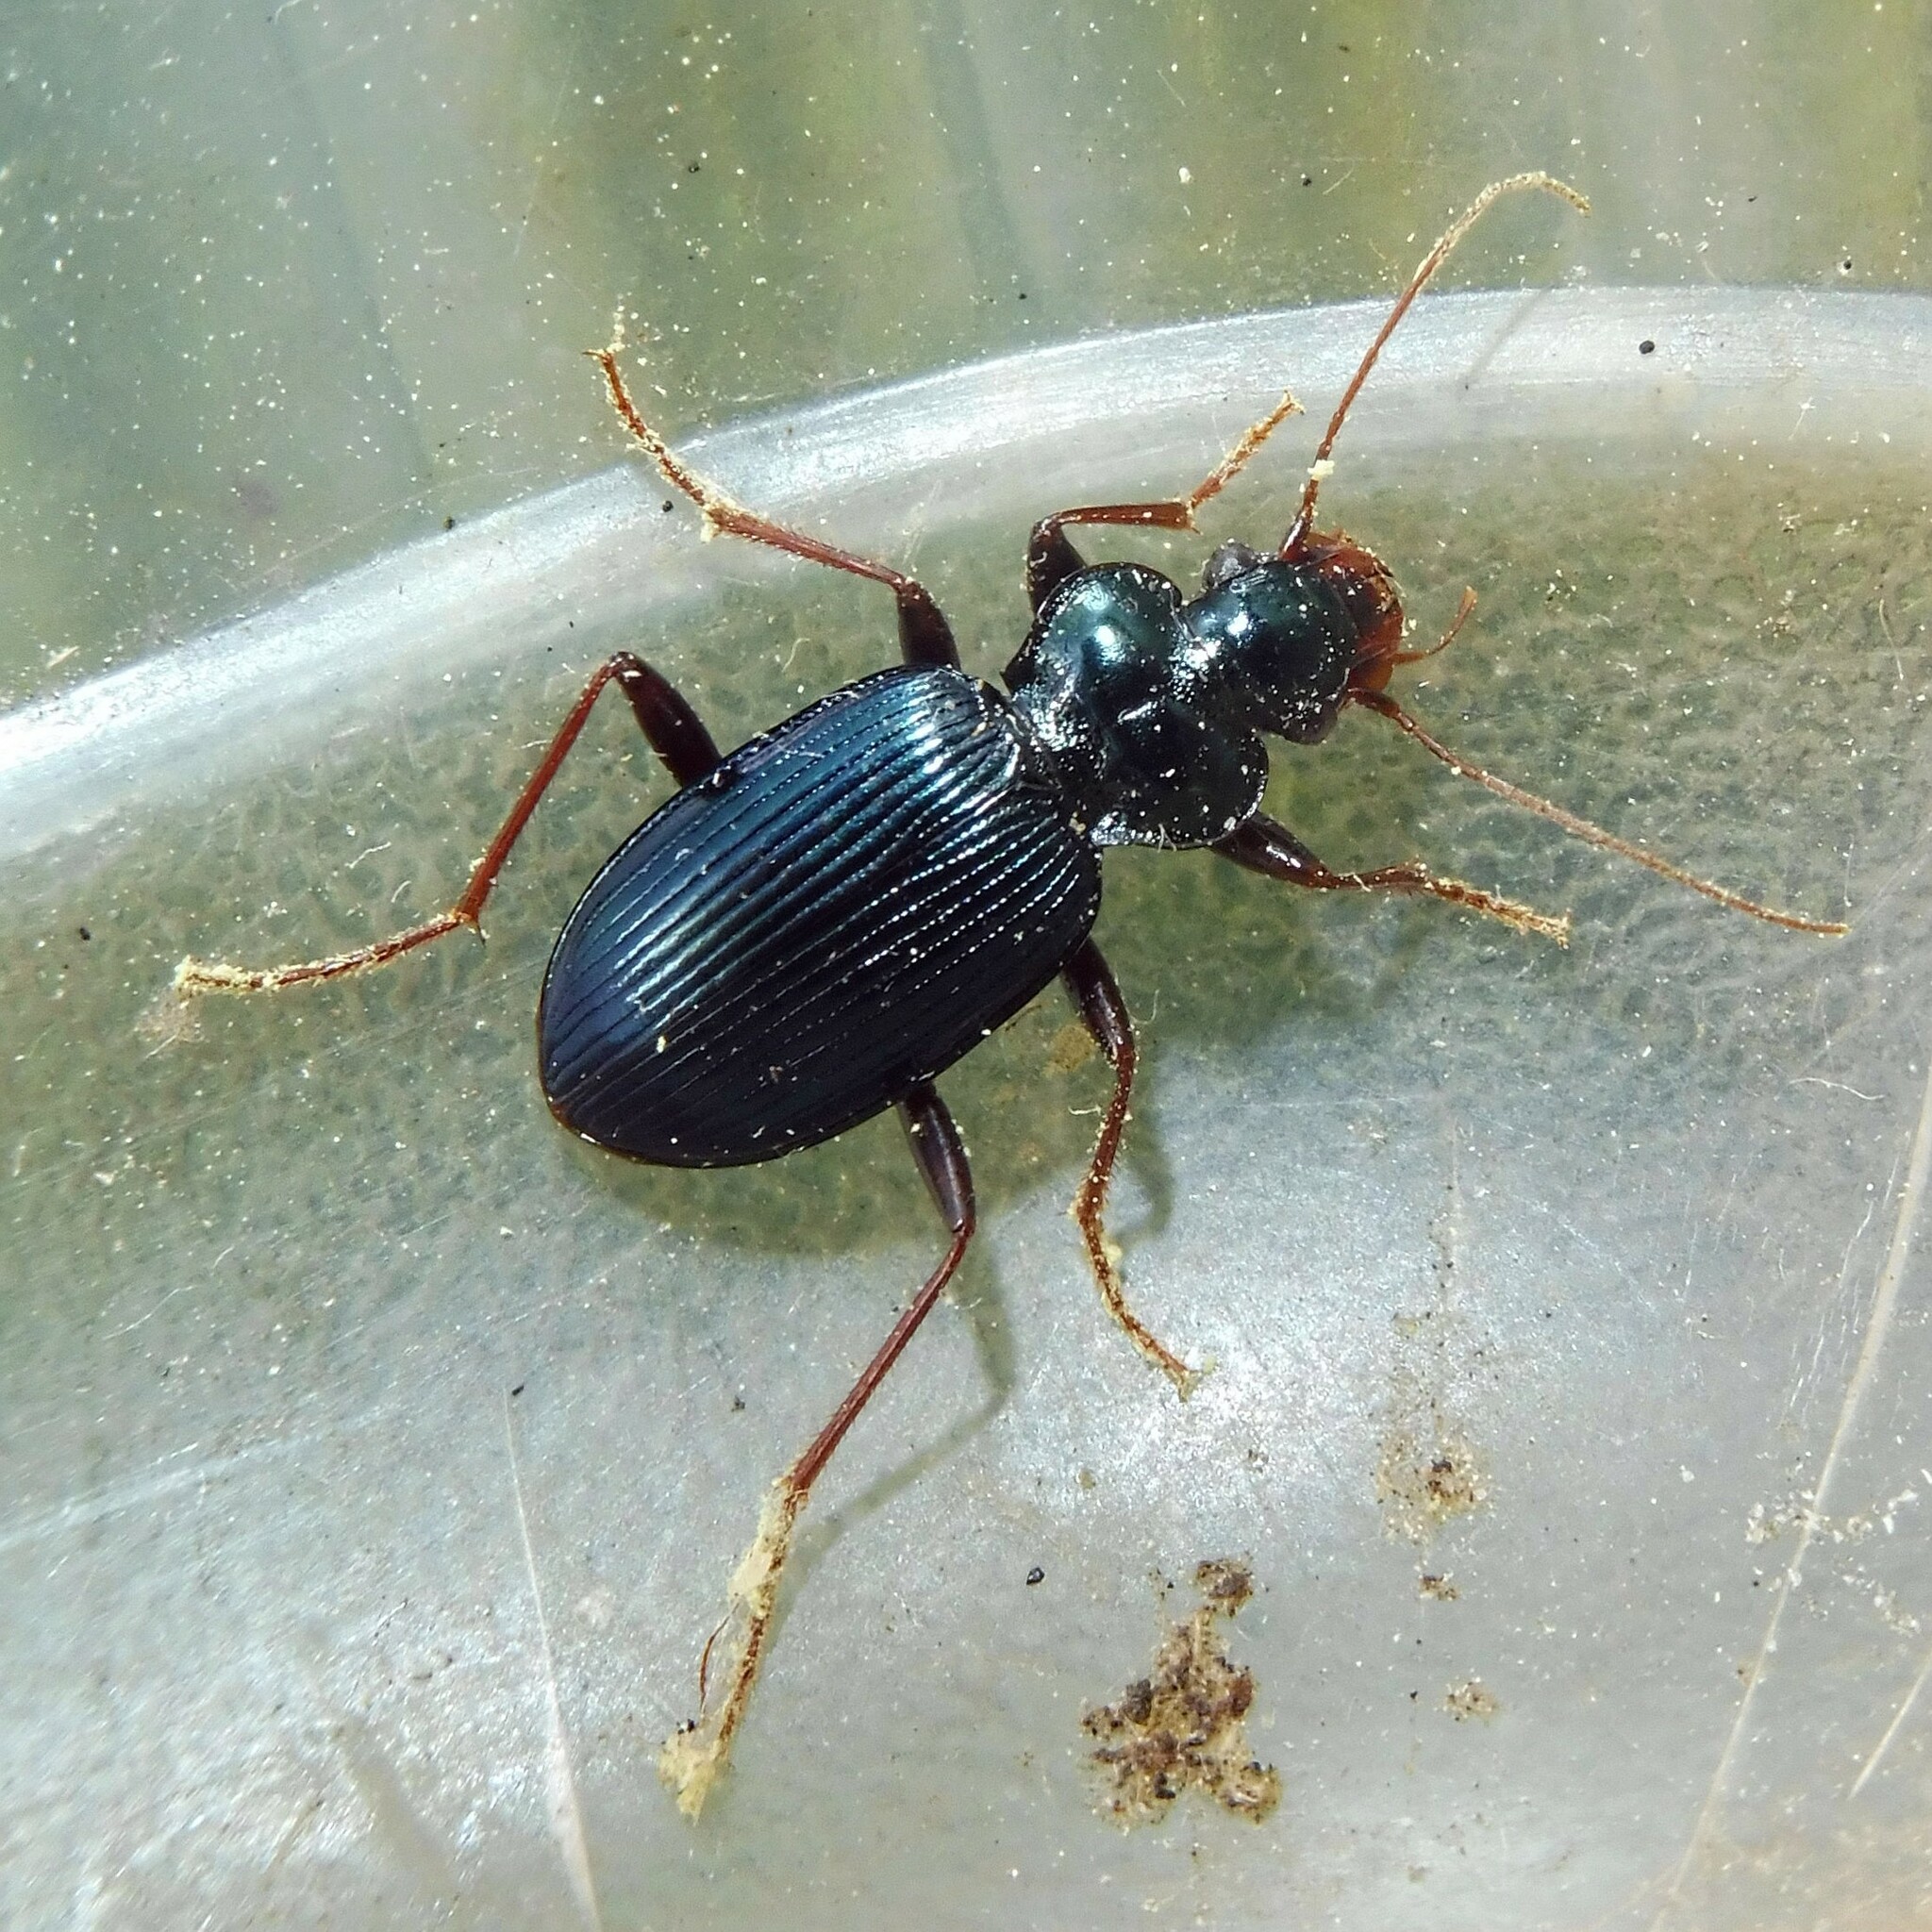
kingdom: Animalia
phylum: Arthropoda
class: Insecta
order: Coleoptera
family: Carabidae
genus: Leistus
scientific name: Leistus spinibarbis
